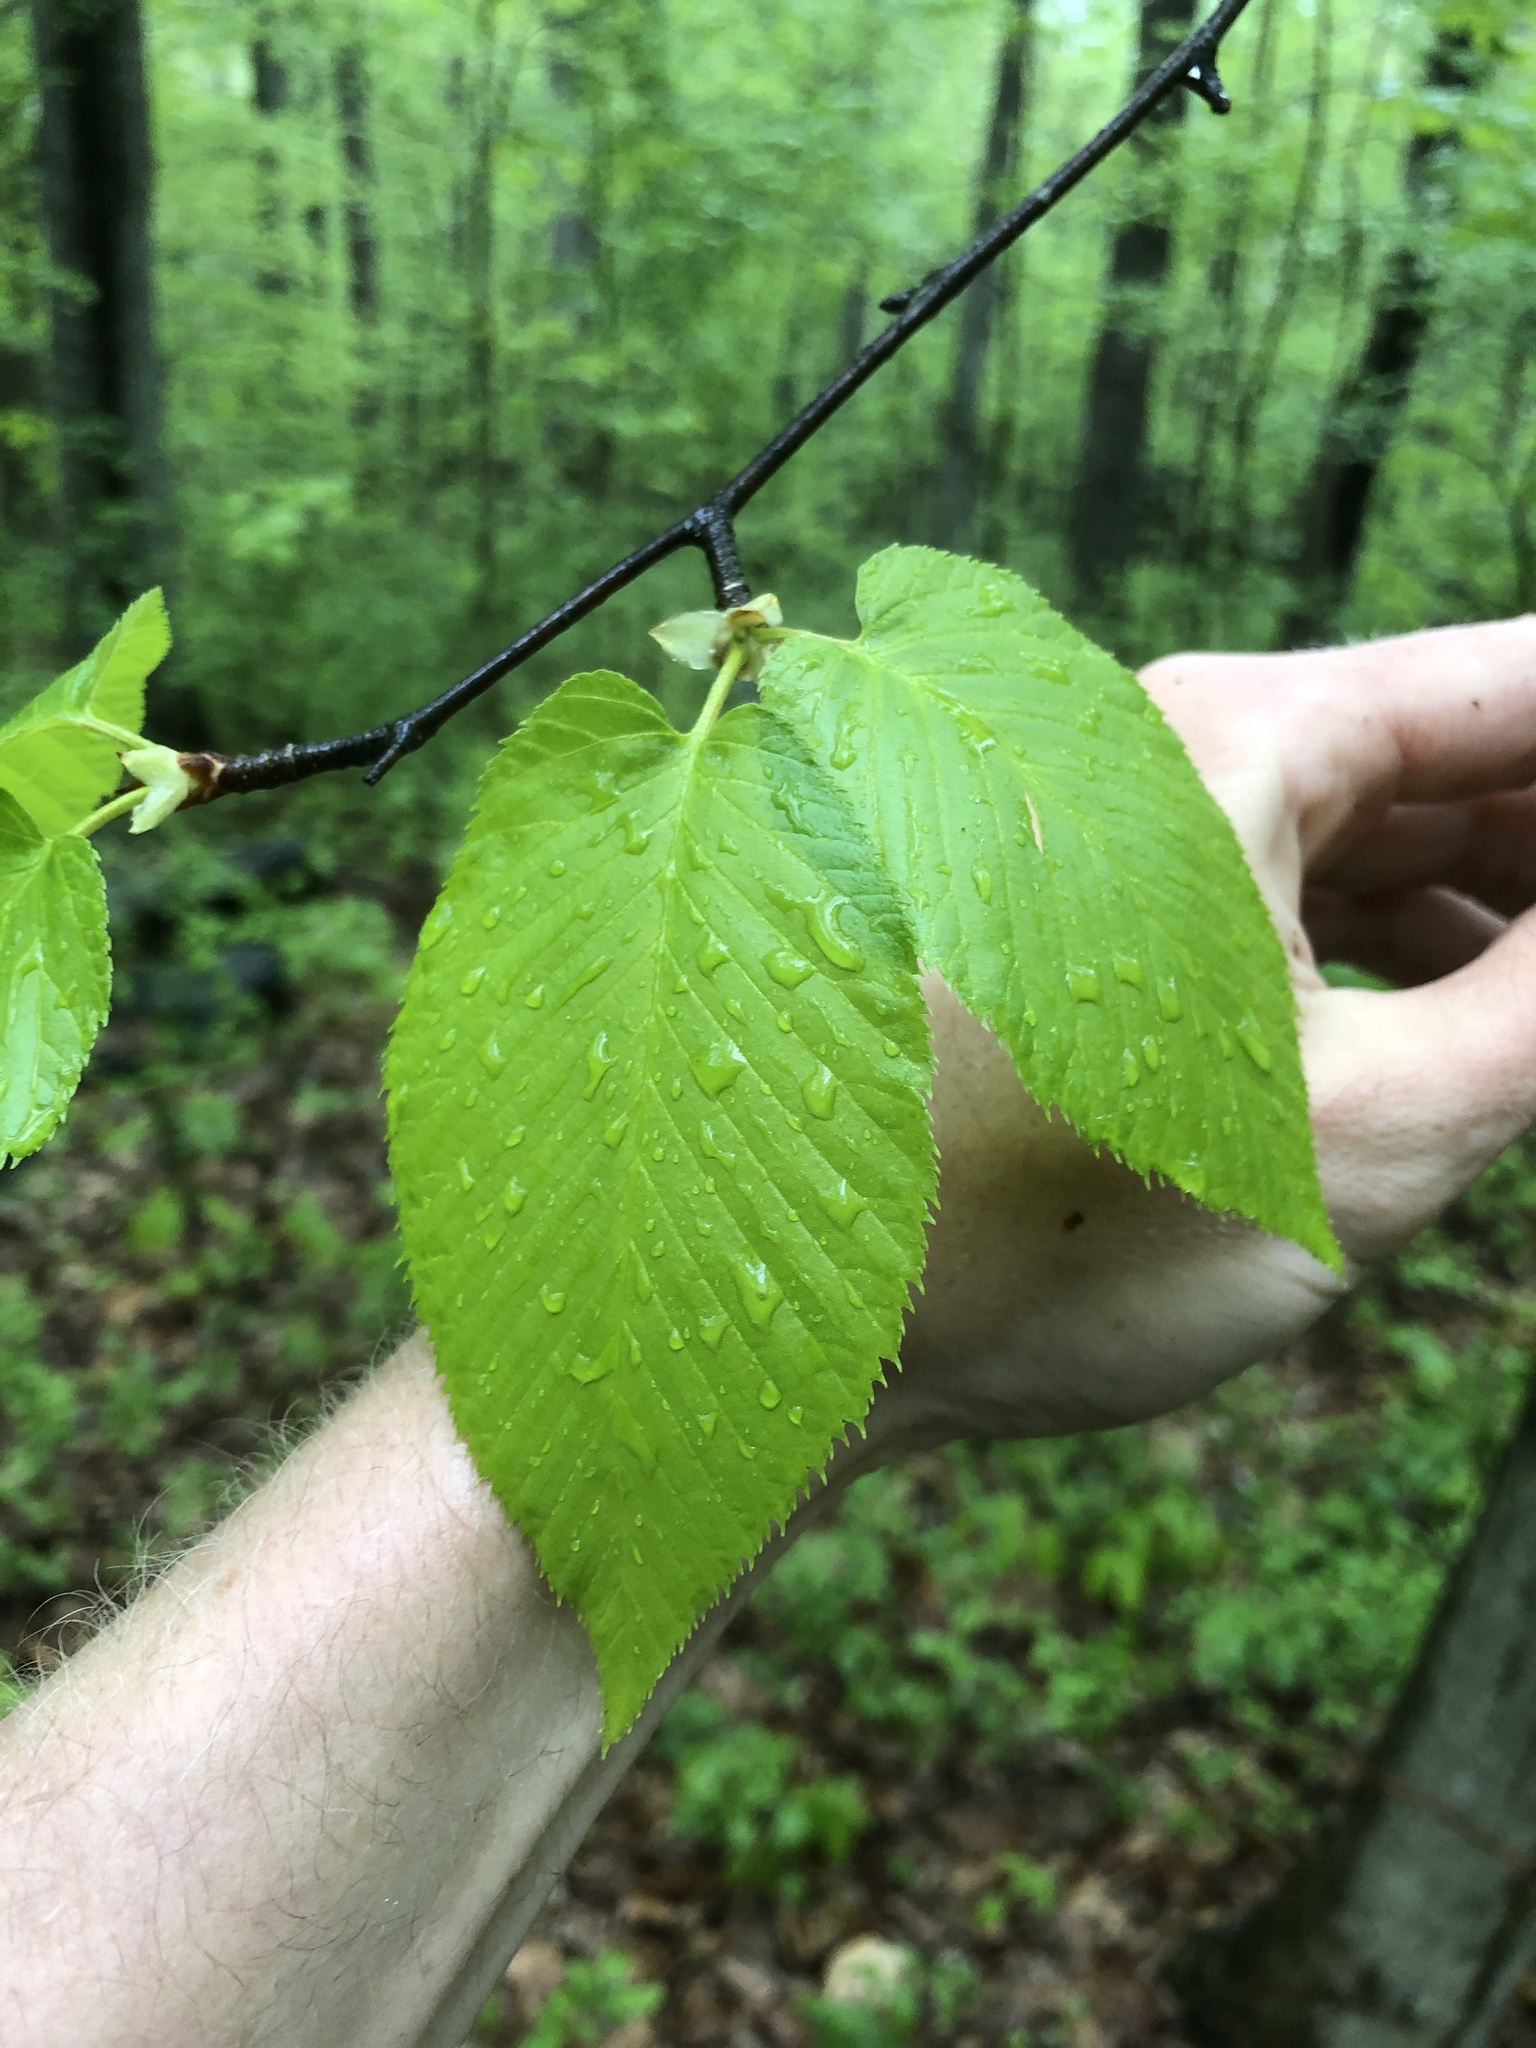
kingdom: Plantae
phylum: Tracheophyta
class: Magnoliopsida
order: Fagales
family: Betulaceae
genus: Betula
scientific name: Betula lenta
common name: Black birch
